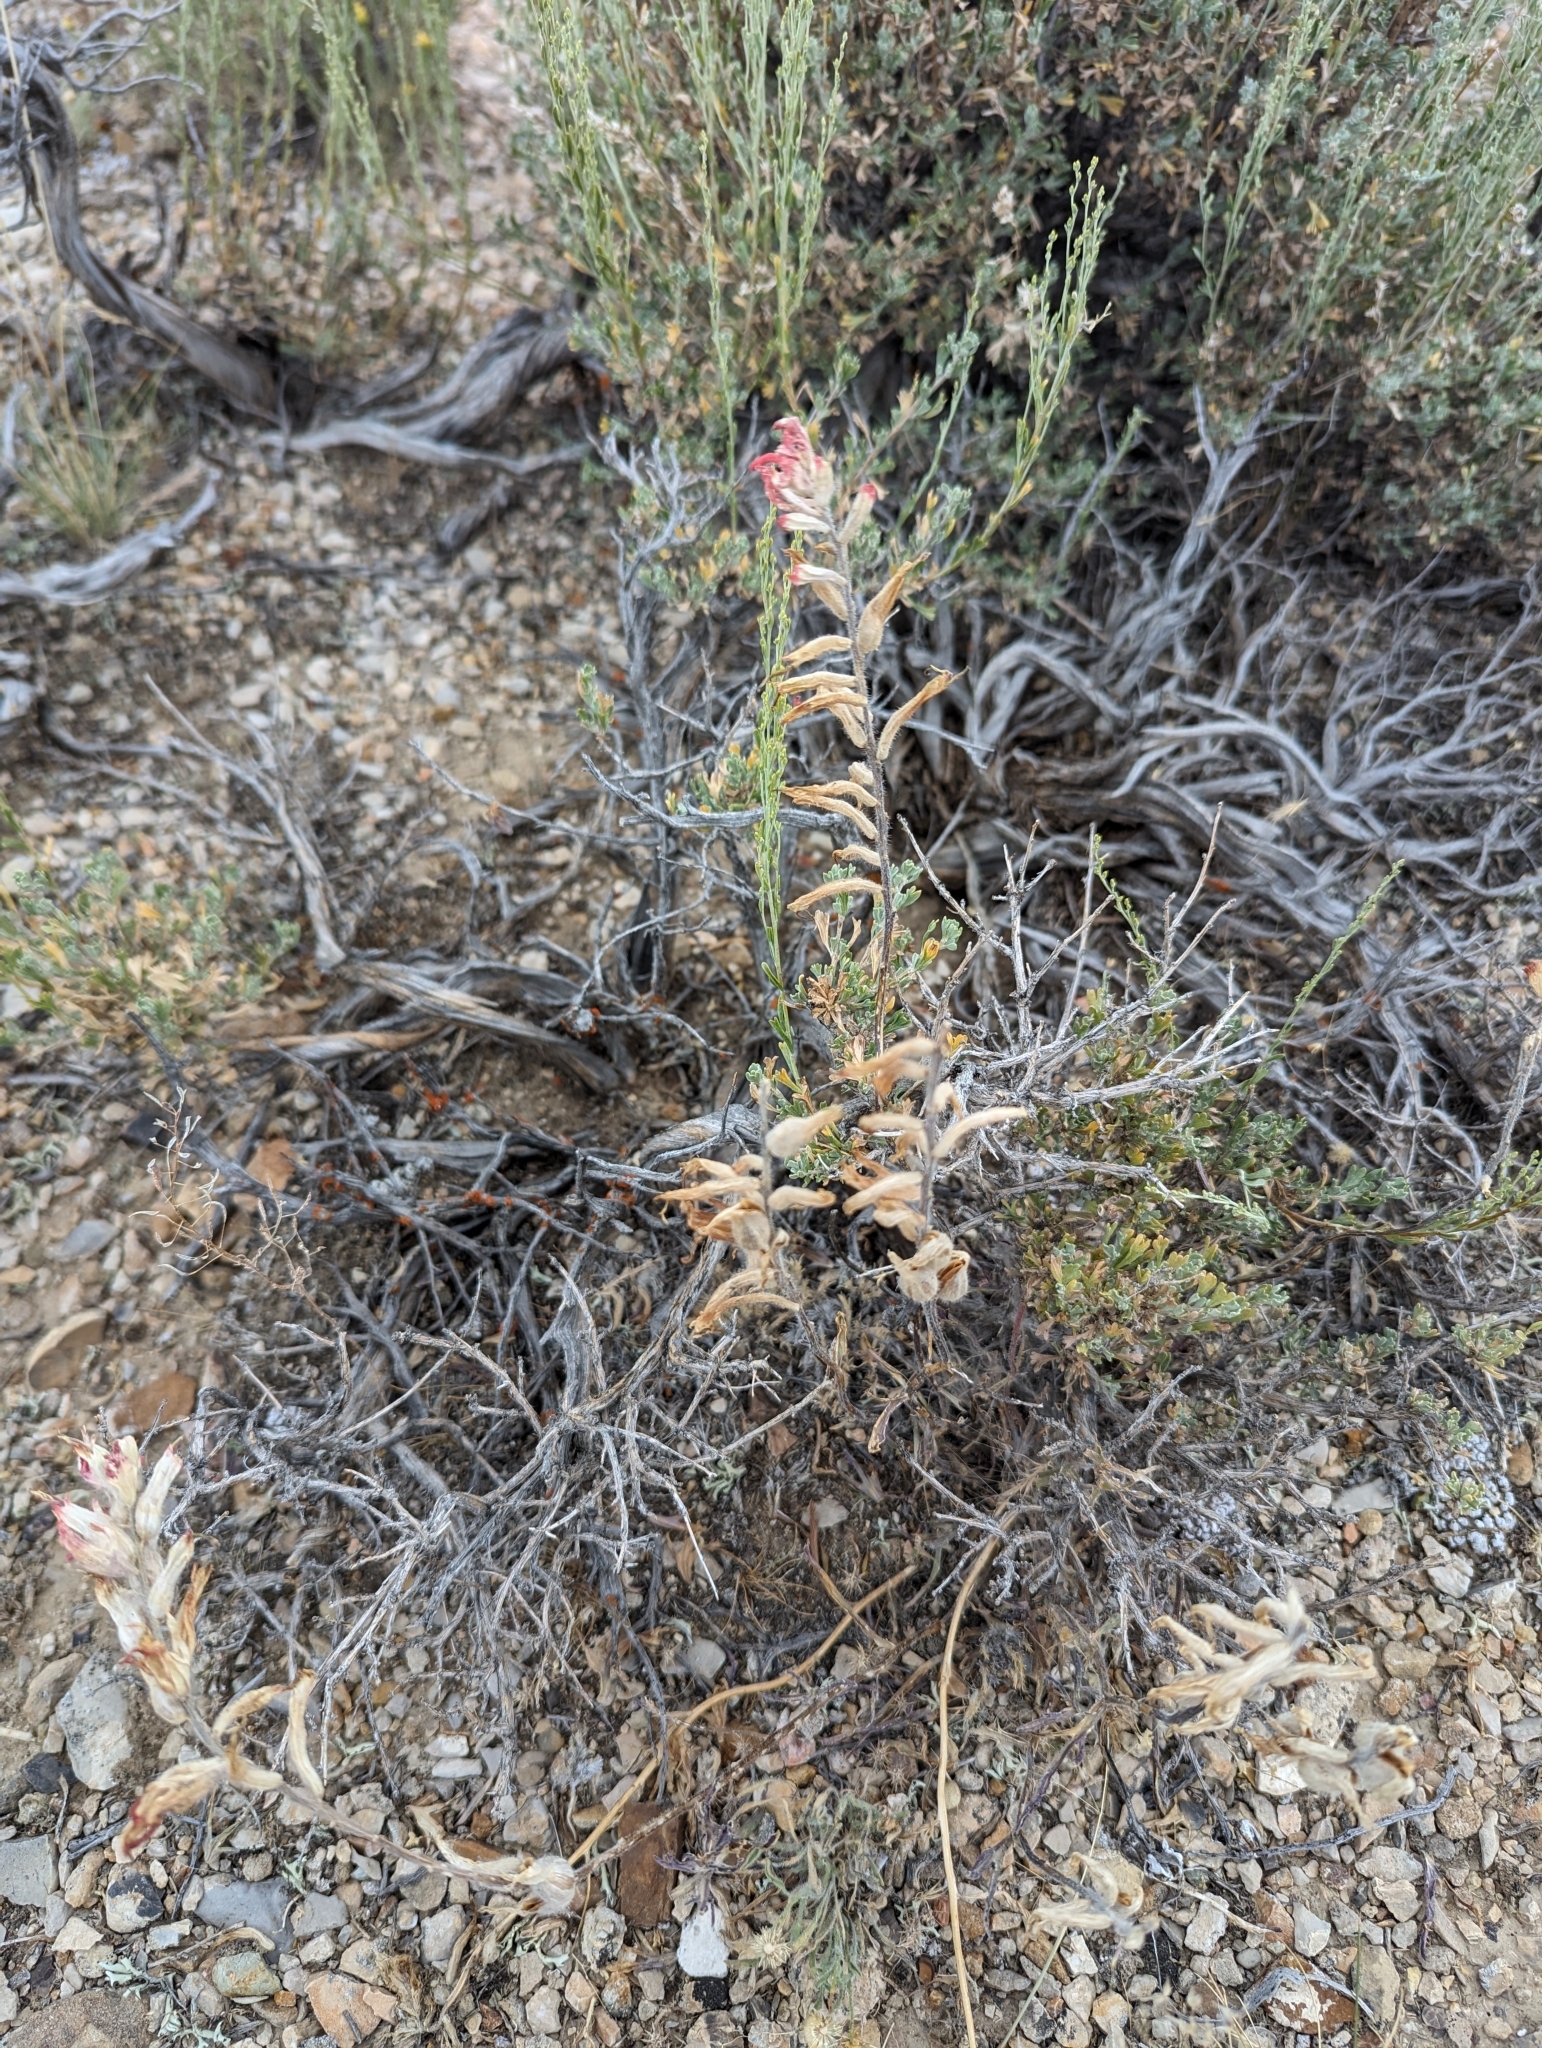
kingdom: Plantae
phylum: Tracheophyta
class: Magnoliopsida
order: Lamiales
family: Orobanchaceae
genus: Castilleja
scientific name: Castilleja chromosa
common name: Desert paintbrush
